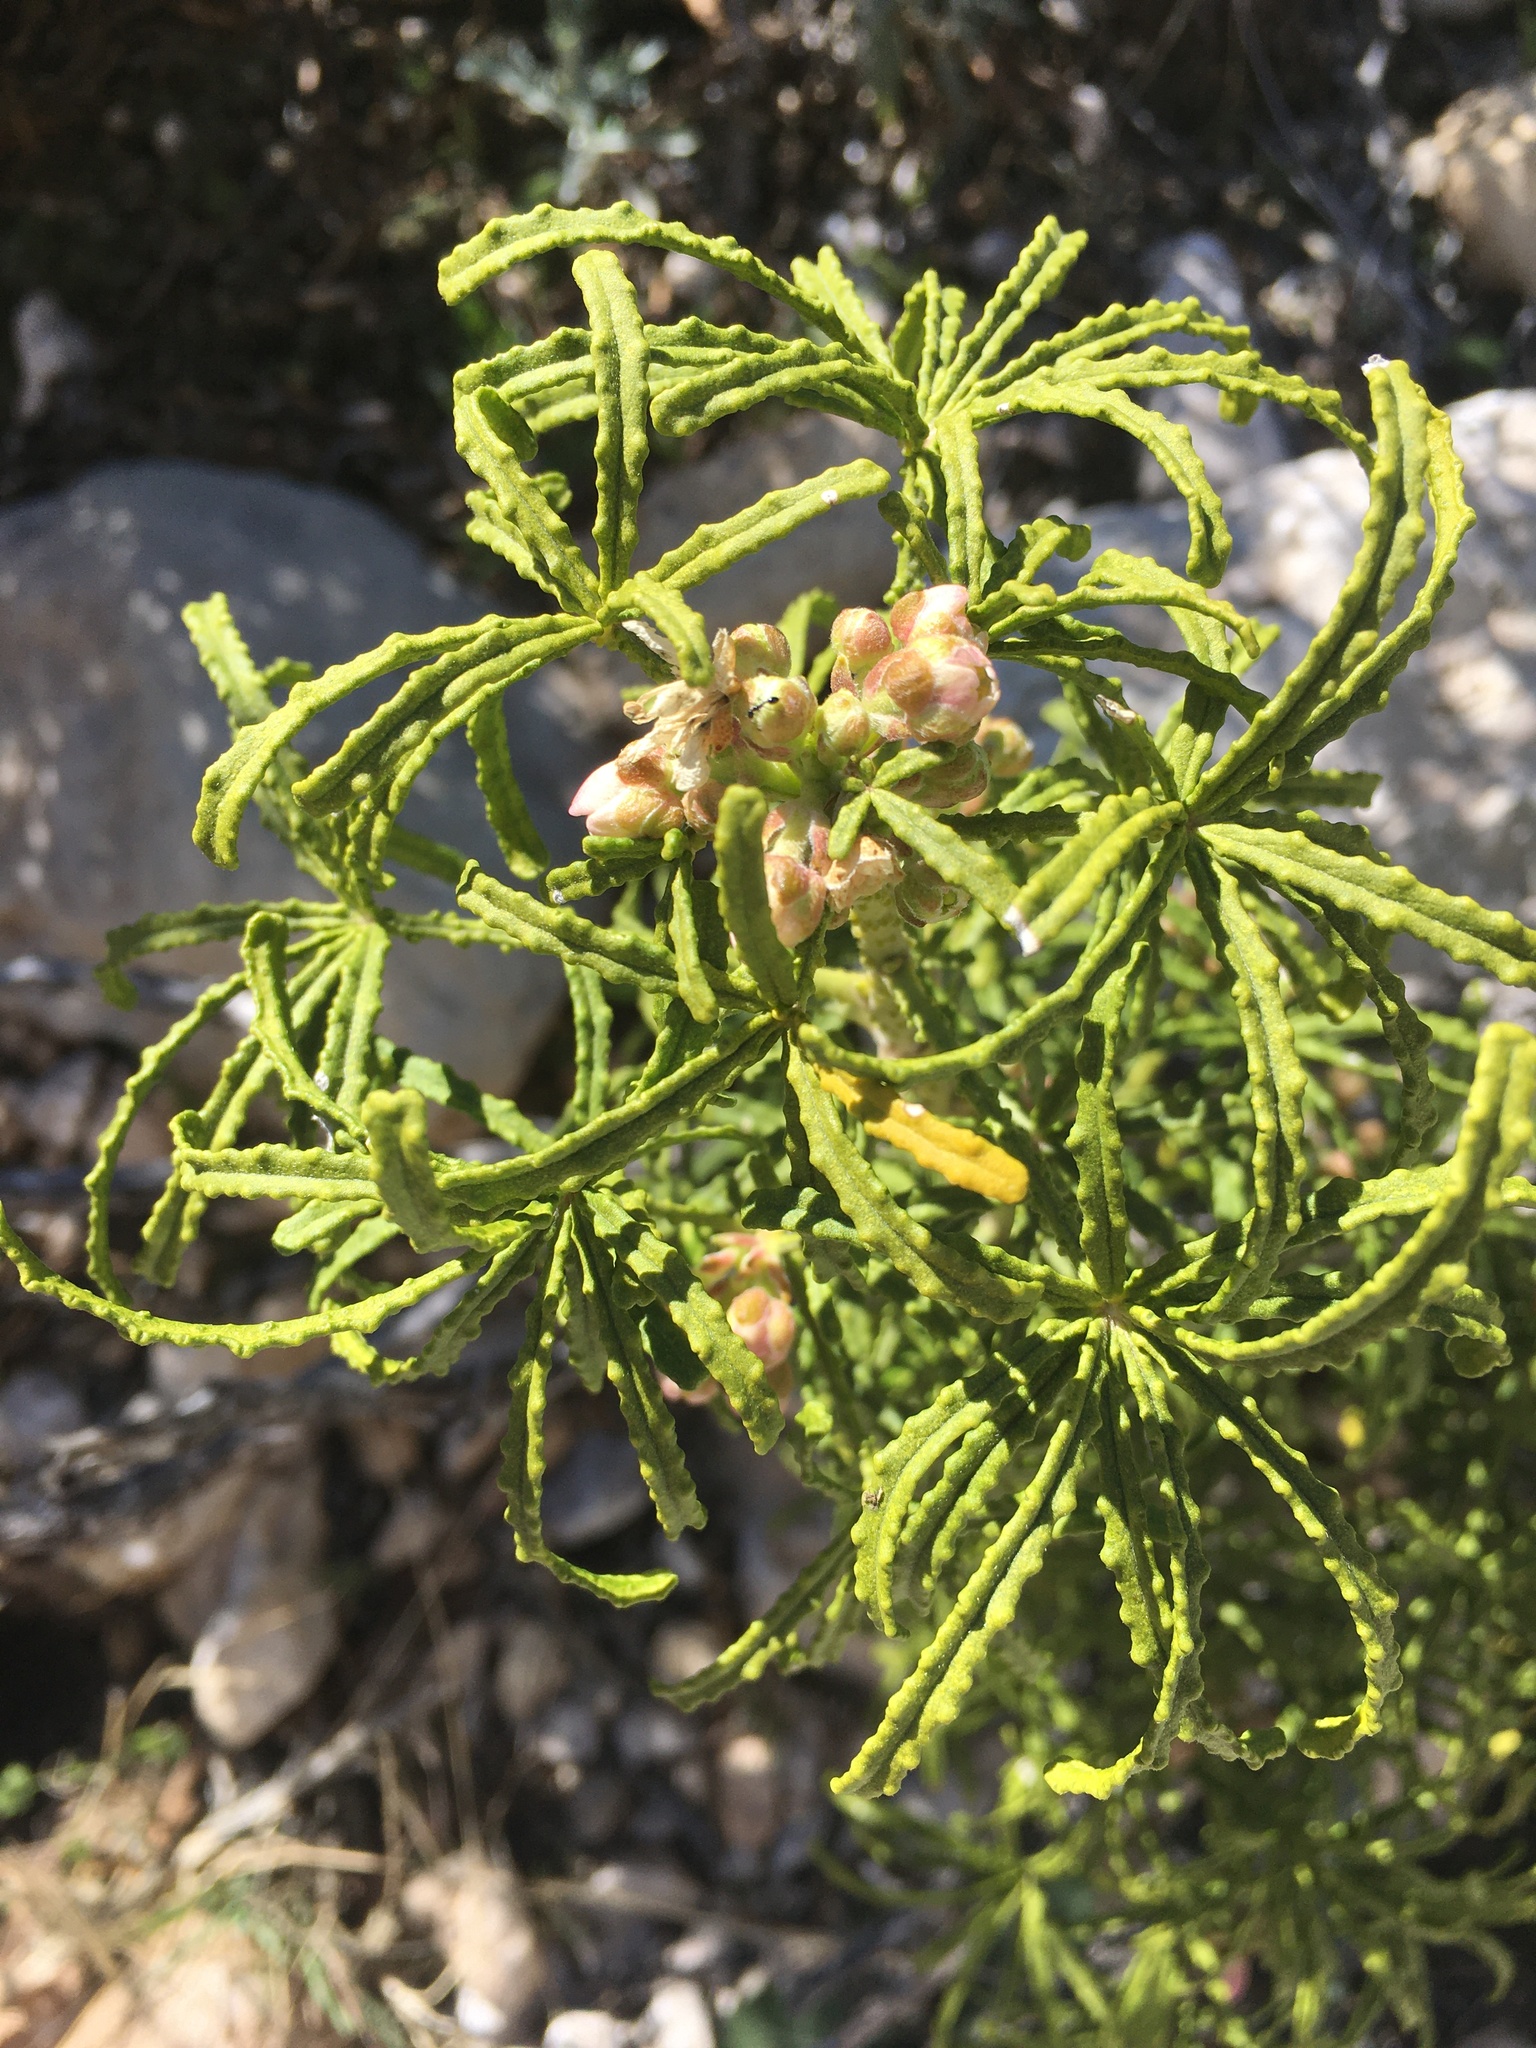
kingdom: Plantae
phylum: Tracheophyta
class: Magnoliopsida
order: Sapindales
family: Rutaceae
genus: Choisya
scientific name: Choisya dumosa
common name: Mexican-orange
